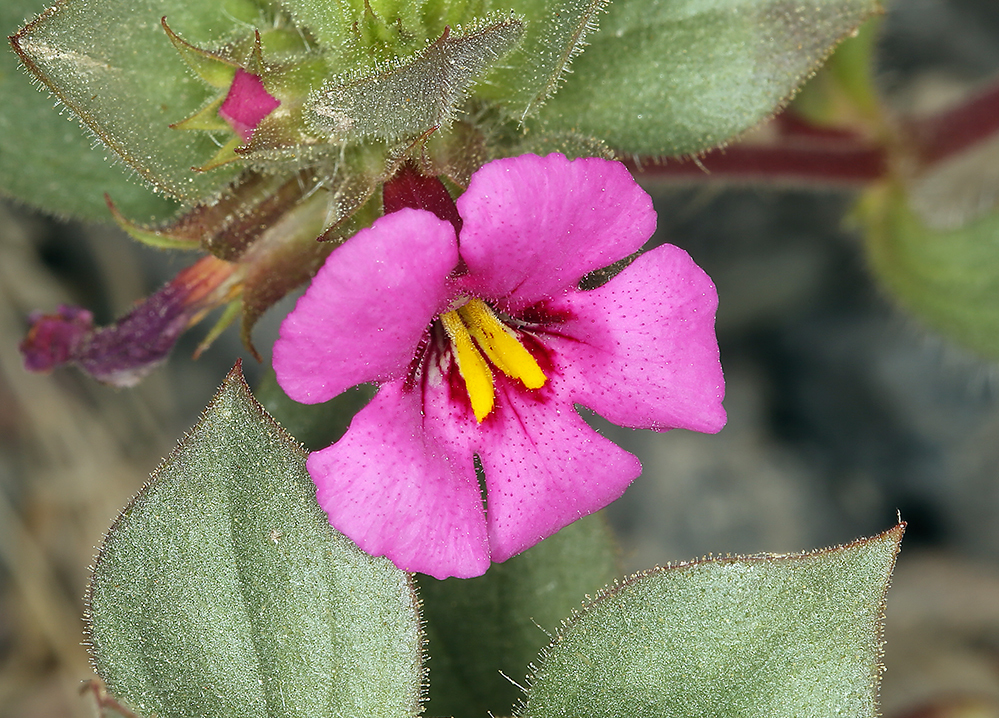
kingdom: Plantae
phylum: Tracheophyta
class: Magnoliopsida
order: Lamiales
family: Phrymaceae
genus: Diplacus
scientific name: Diplacus bigelovii
